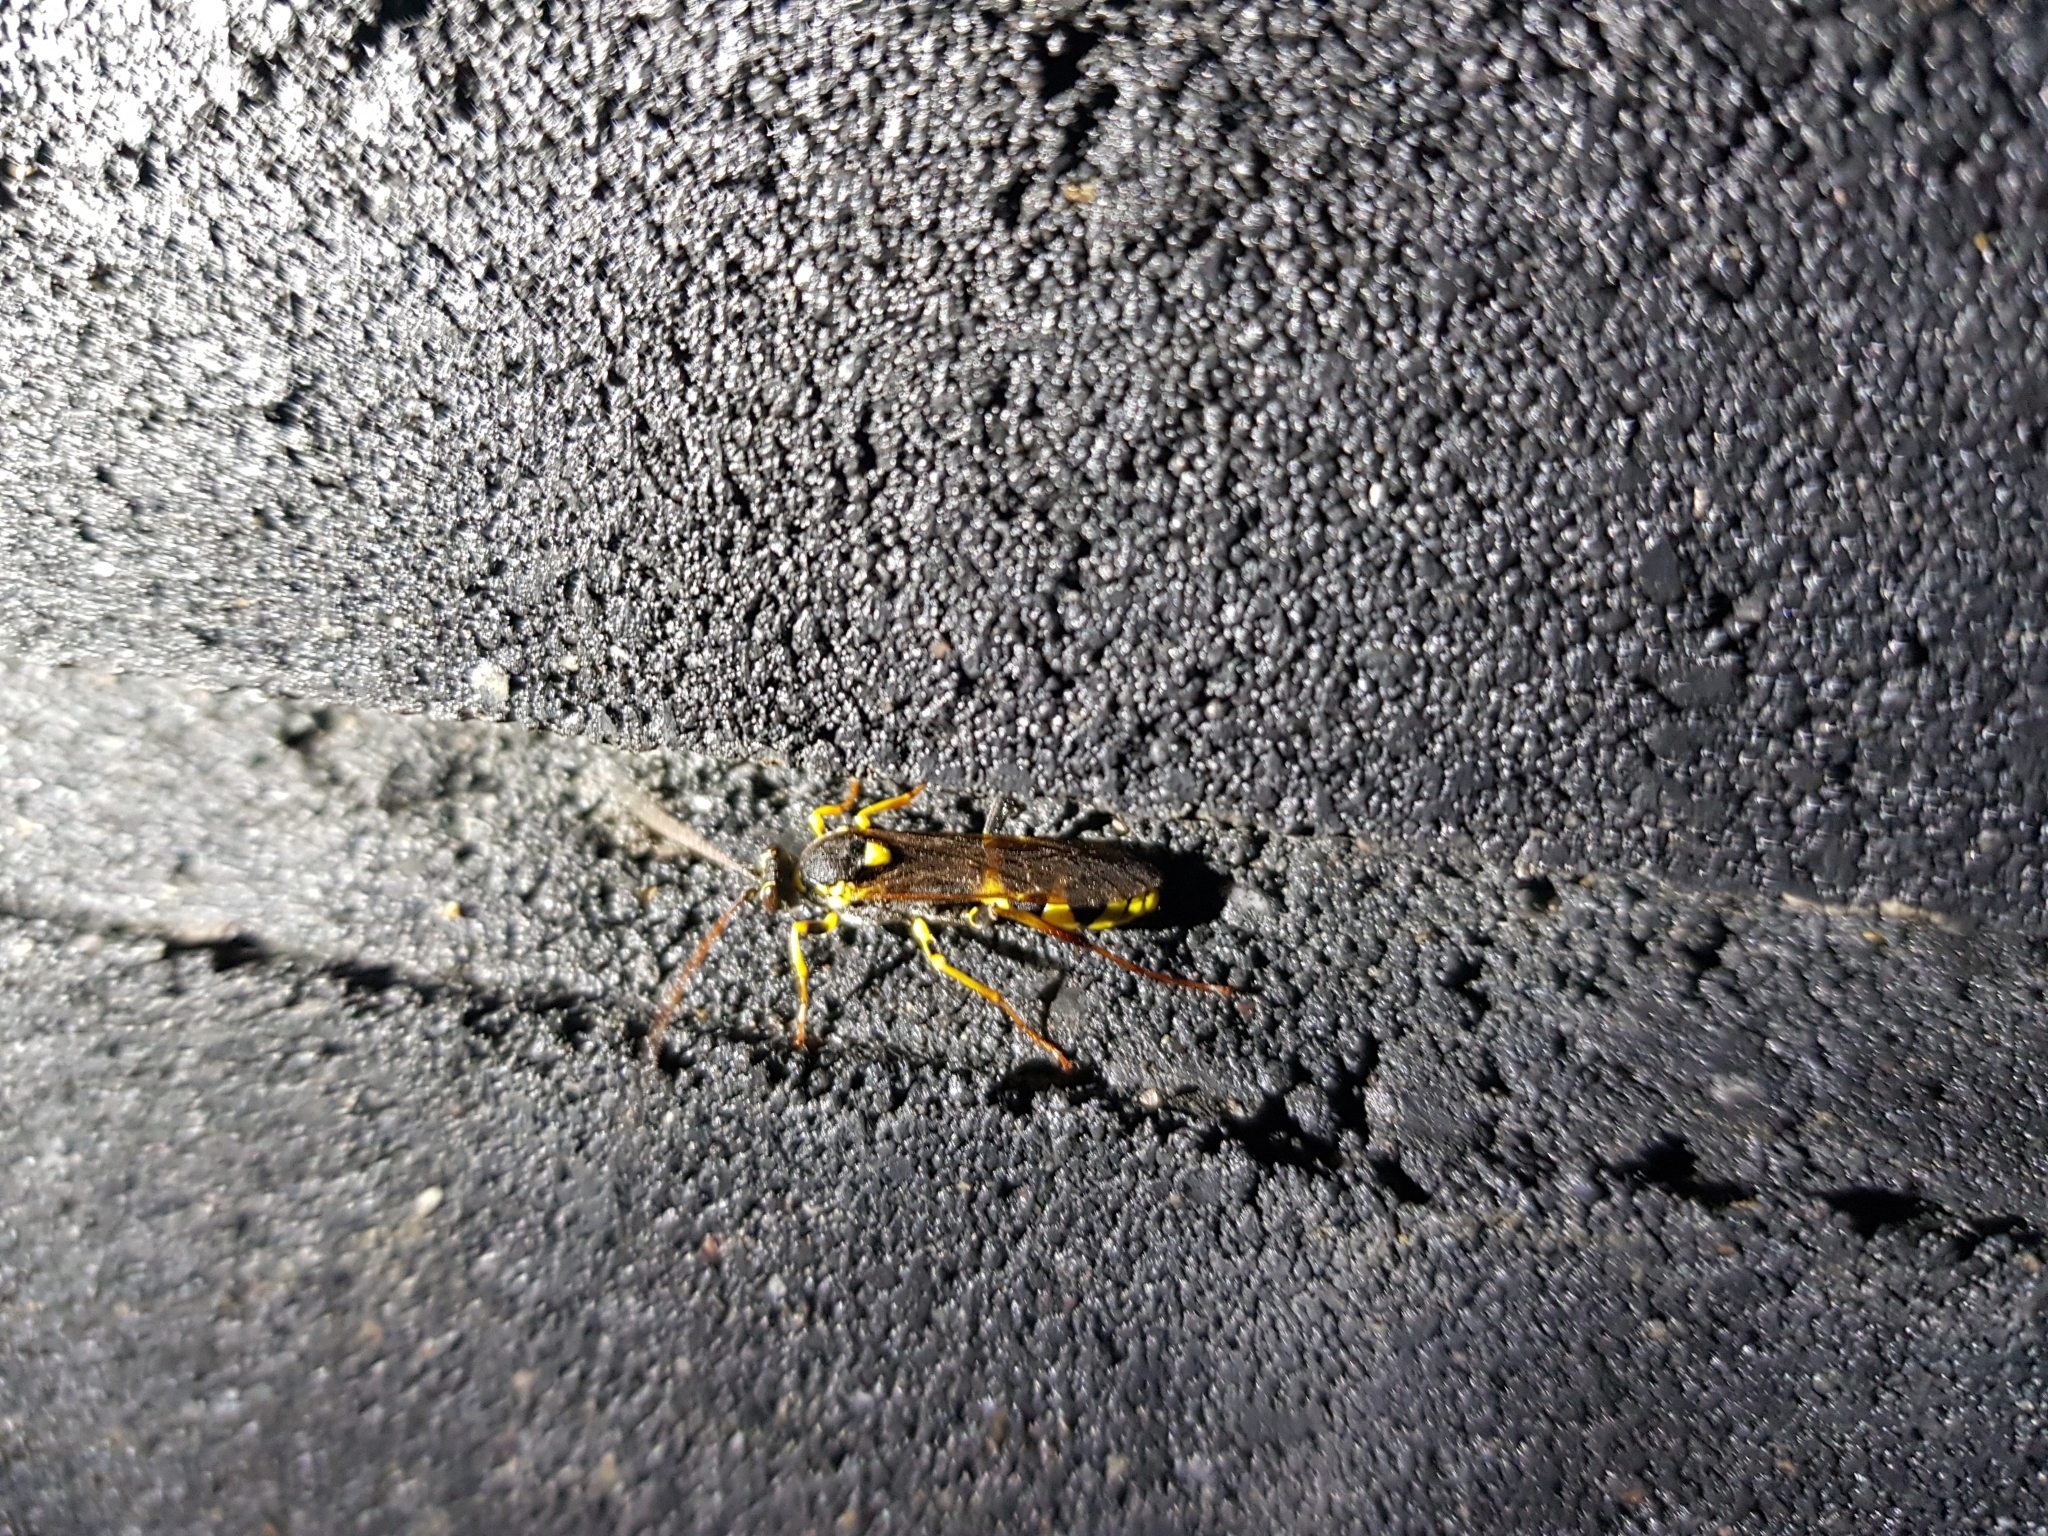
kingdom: Animalia
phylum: Arthropoda
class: Insecta
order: Hymenoptera
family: Ichneumonidae
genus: Amblyteles
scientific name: Amblyteles armatorius
